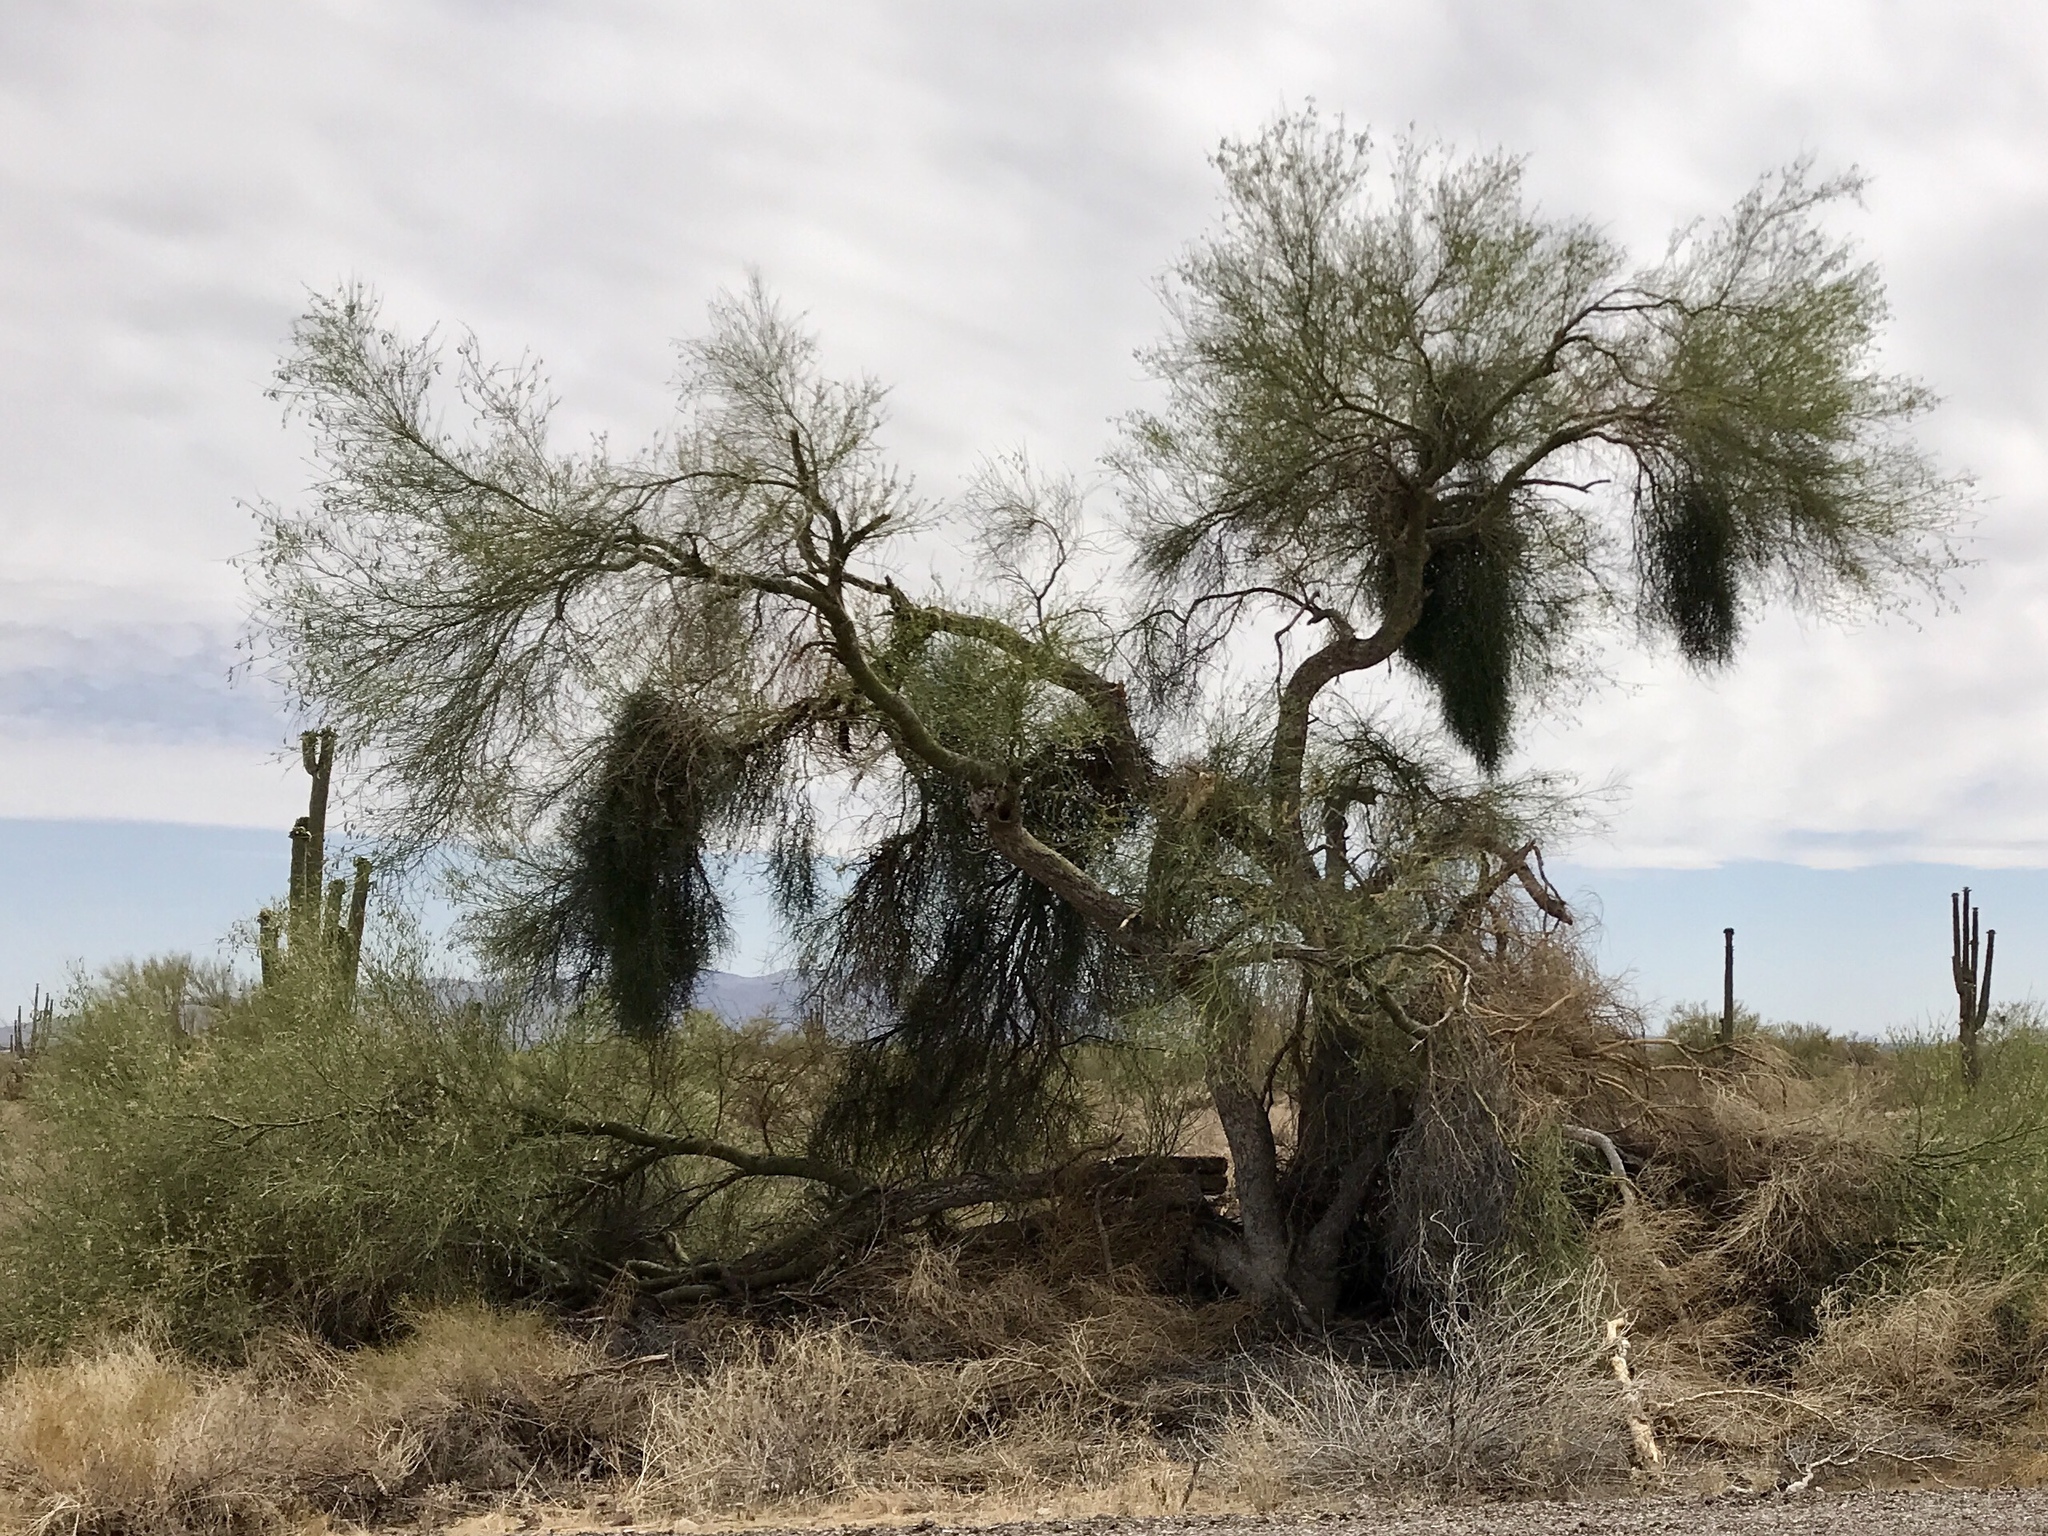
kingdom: Plantae
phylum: Tracheophyta
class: Magnoliopsida
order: Fabales
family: Fabaceae
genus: Parkinsonia
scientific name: Parkinsonia florida
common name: Blue paloverde
